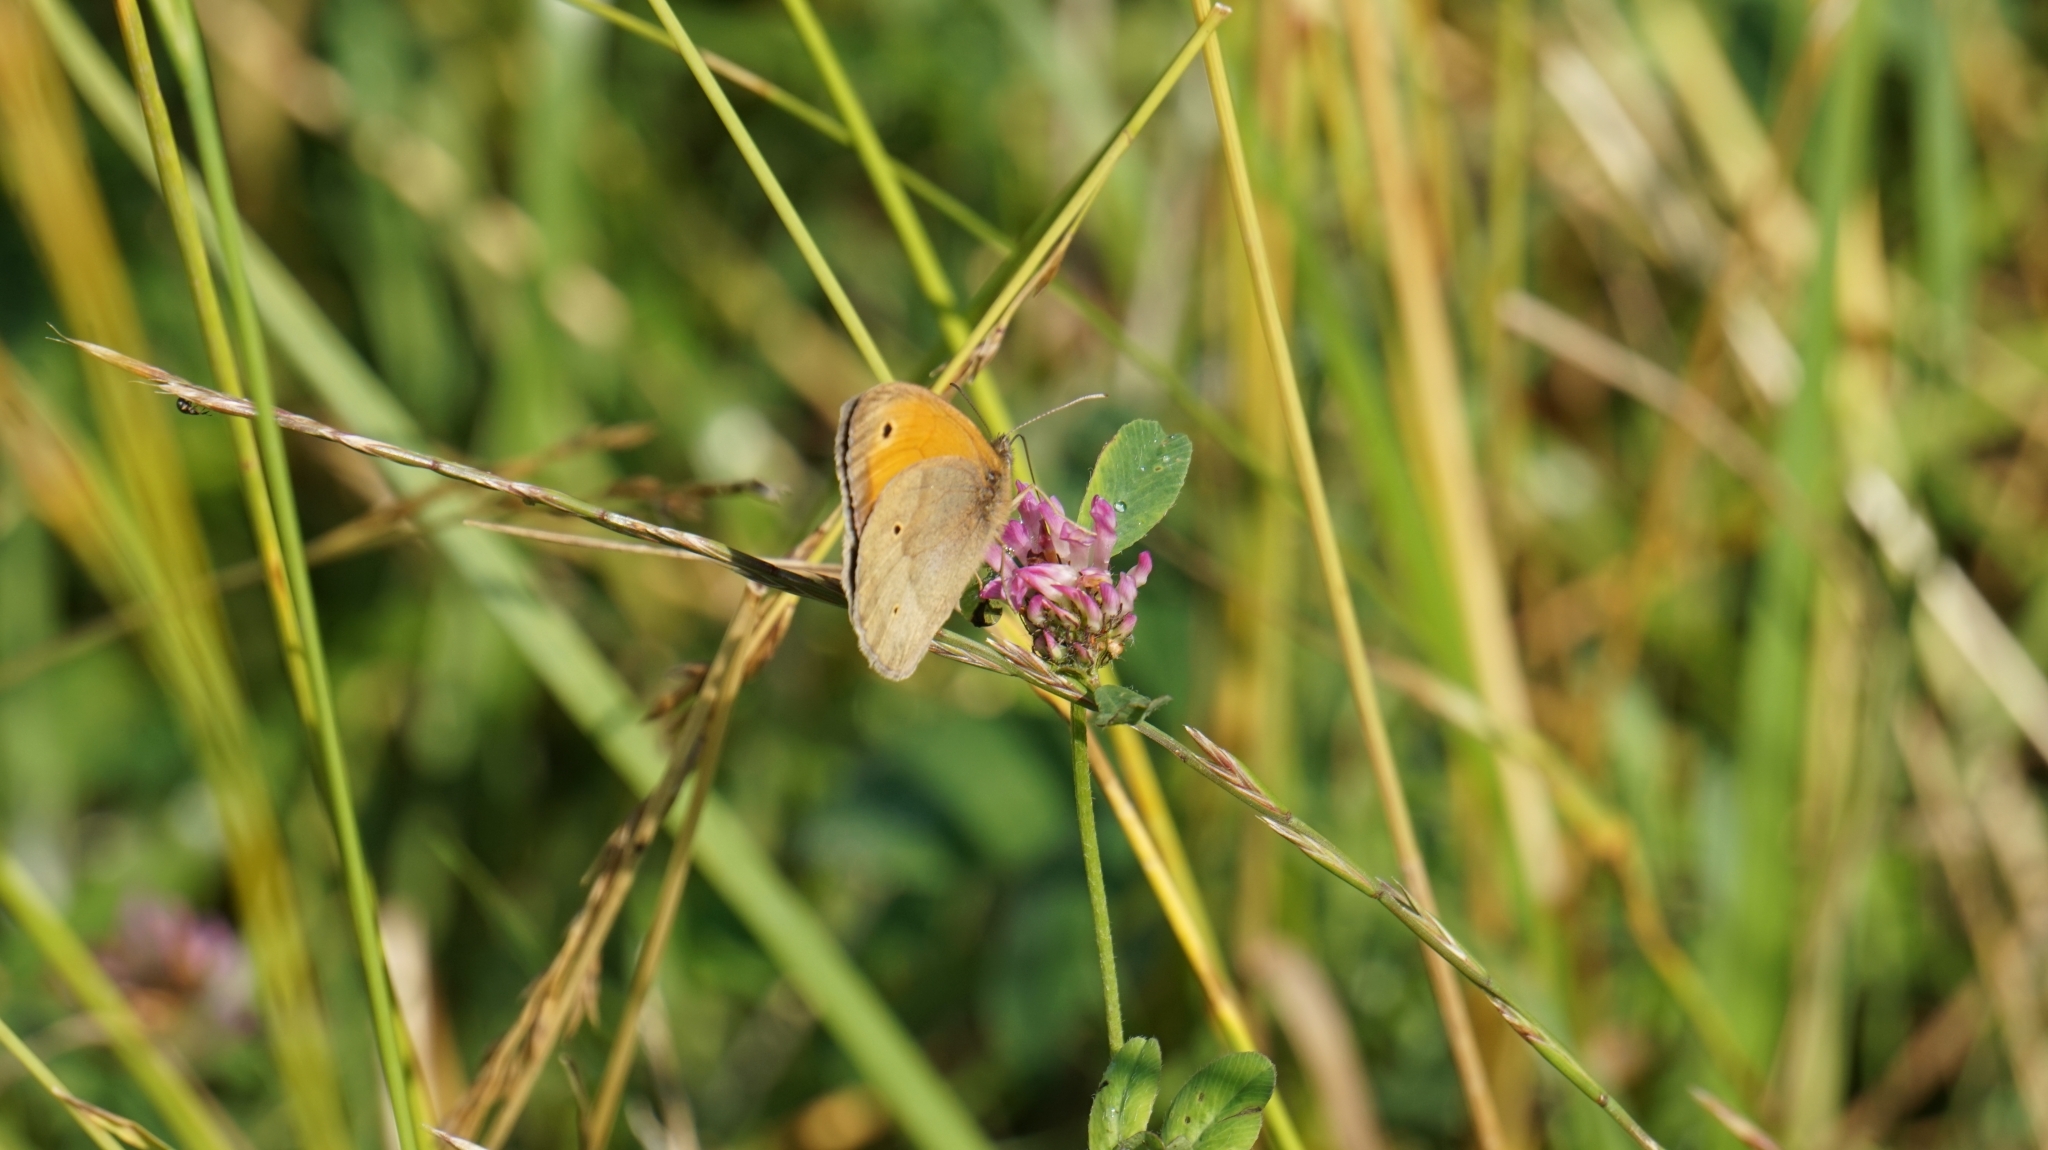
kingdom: Animalia
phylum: Arthropoda
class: Insecta
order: Lepidoptera
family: Nymphalidae
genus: Maniola
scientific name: Maniola jurtina
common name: Meadow brown
